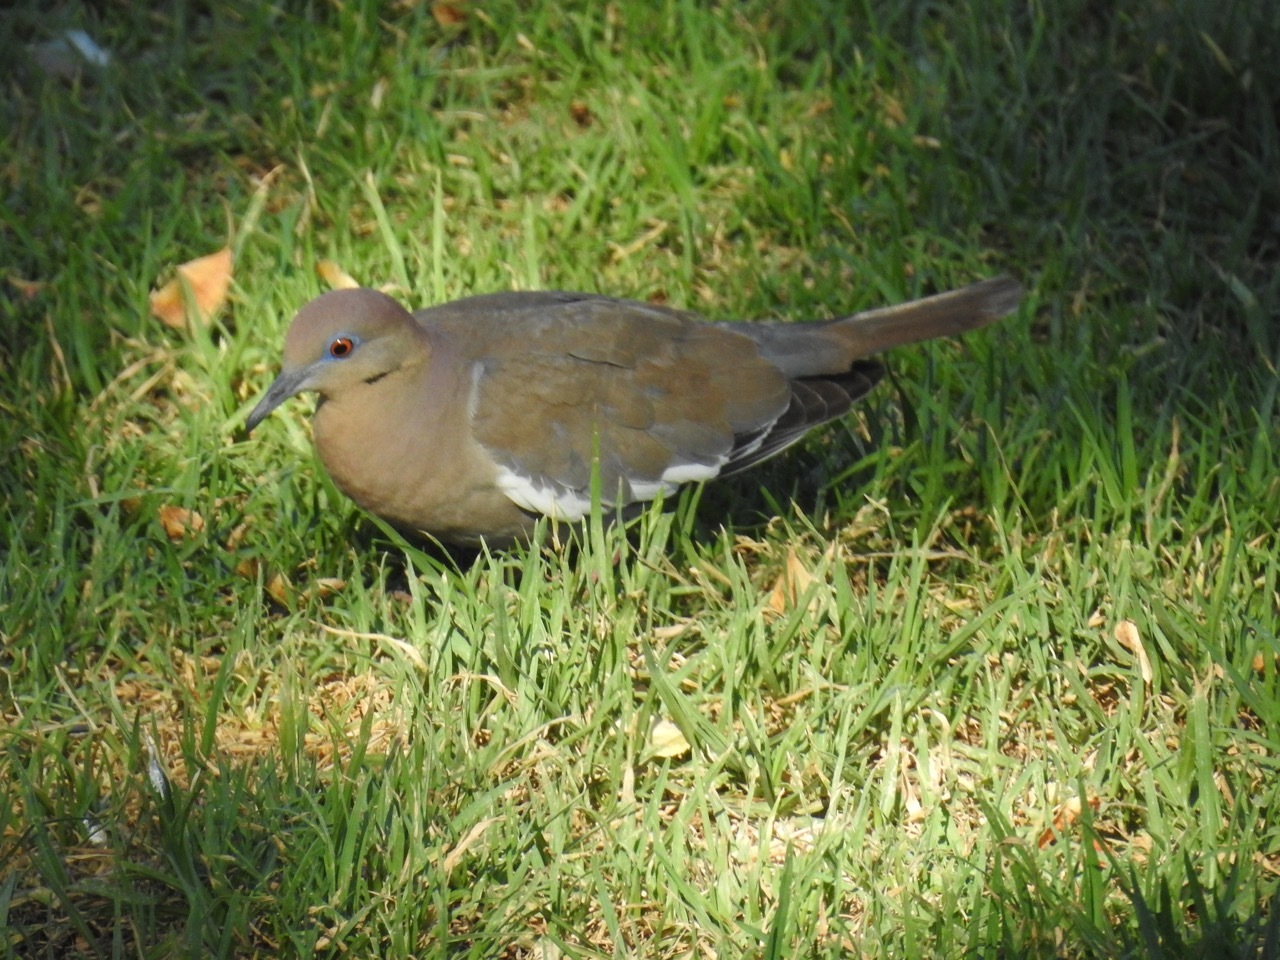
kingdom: Animalia
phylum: Chordata
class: Aves
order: Columbiformes
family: Columbidae
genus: Zenaida
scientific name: Zenaida asiatica
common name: White-winged dove
